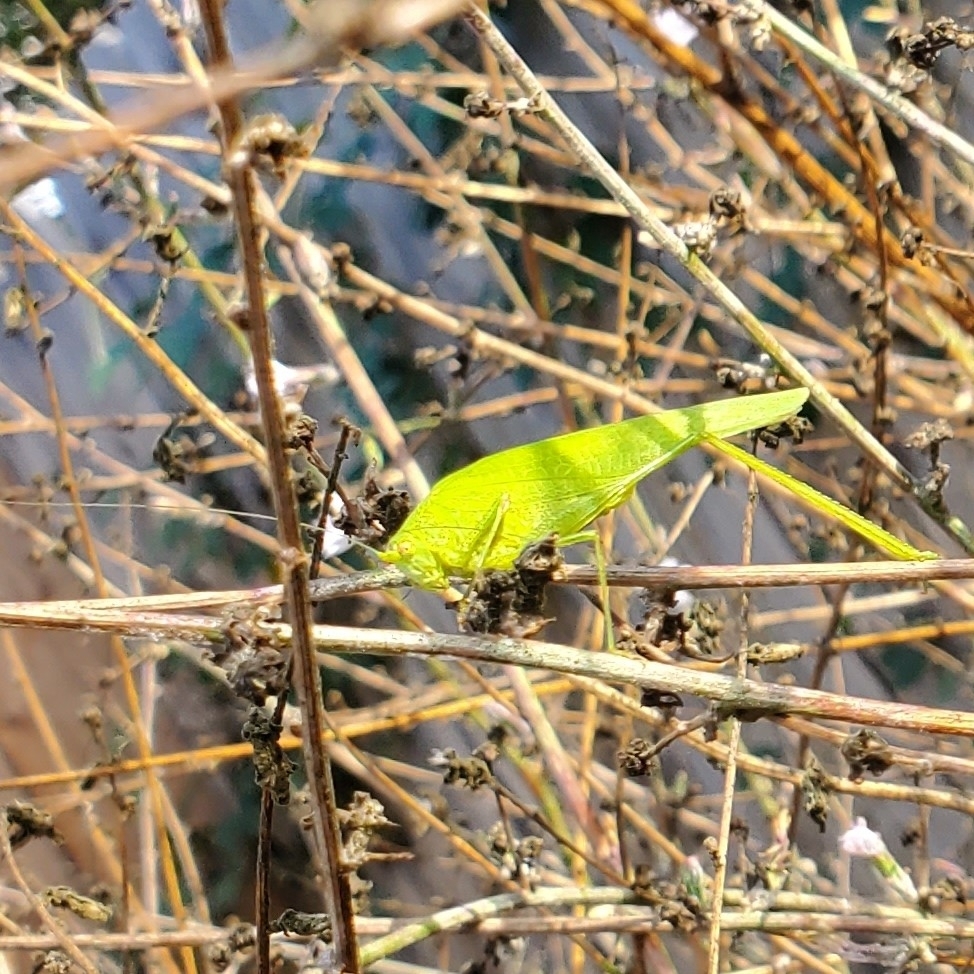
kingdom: Animalia
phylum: Arthropoda
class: Insecta
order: Orthoptera
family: Tettigoniidae
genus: Phaneroptera
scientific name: Phaneroptera nana
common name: Southern sickle bush-cricket
